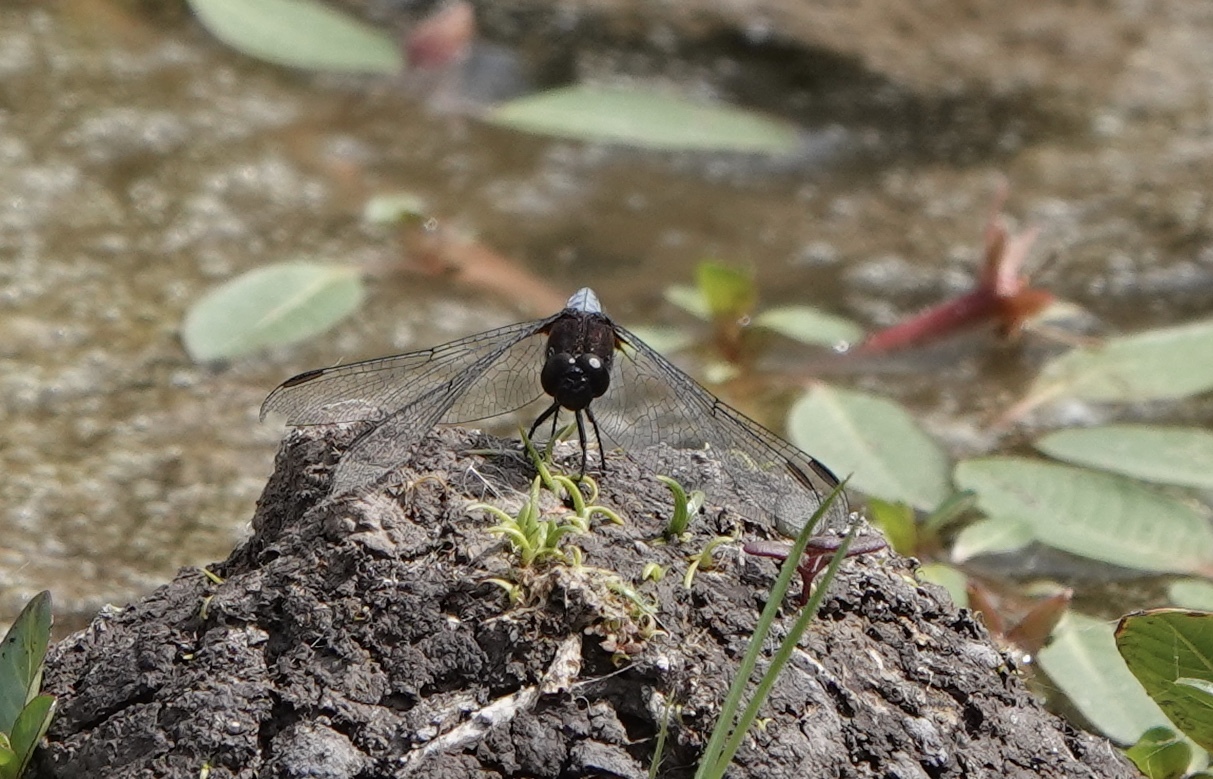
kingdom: Animalia
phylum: Arthropoda
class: Insecta
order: Odonata
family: Libellulidae
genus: Erythrodiplax
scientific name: Erythrodiplax connata
